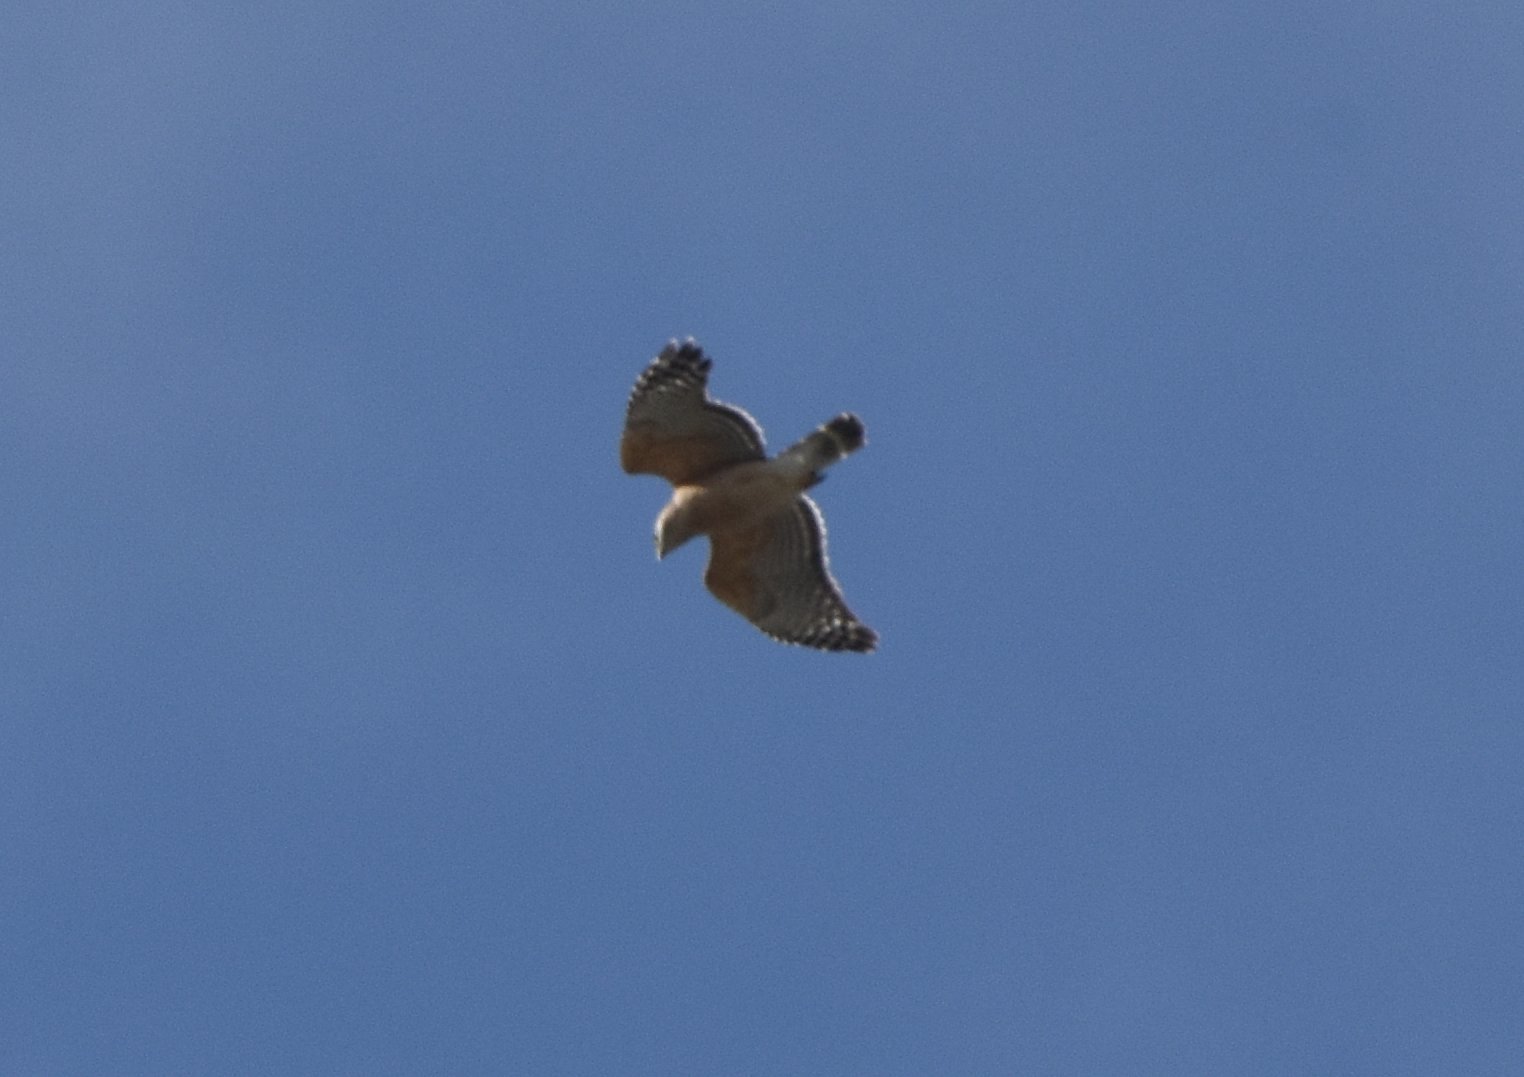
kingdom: Animalia
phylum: Chordata
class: Aves
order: Accipitriformes
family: Accipitridae
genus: Buteo
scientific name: Buteo lineatus
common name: Red-shouldered hawk
